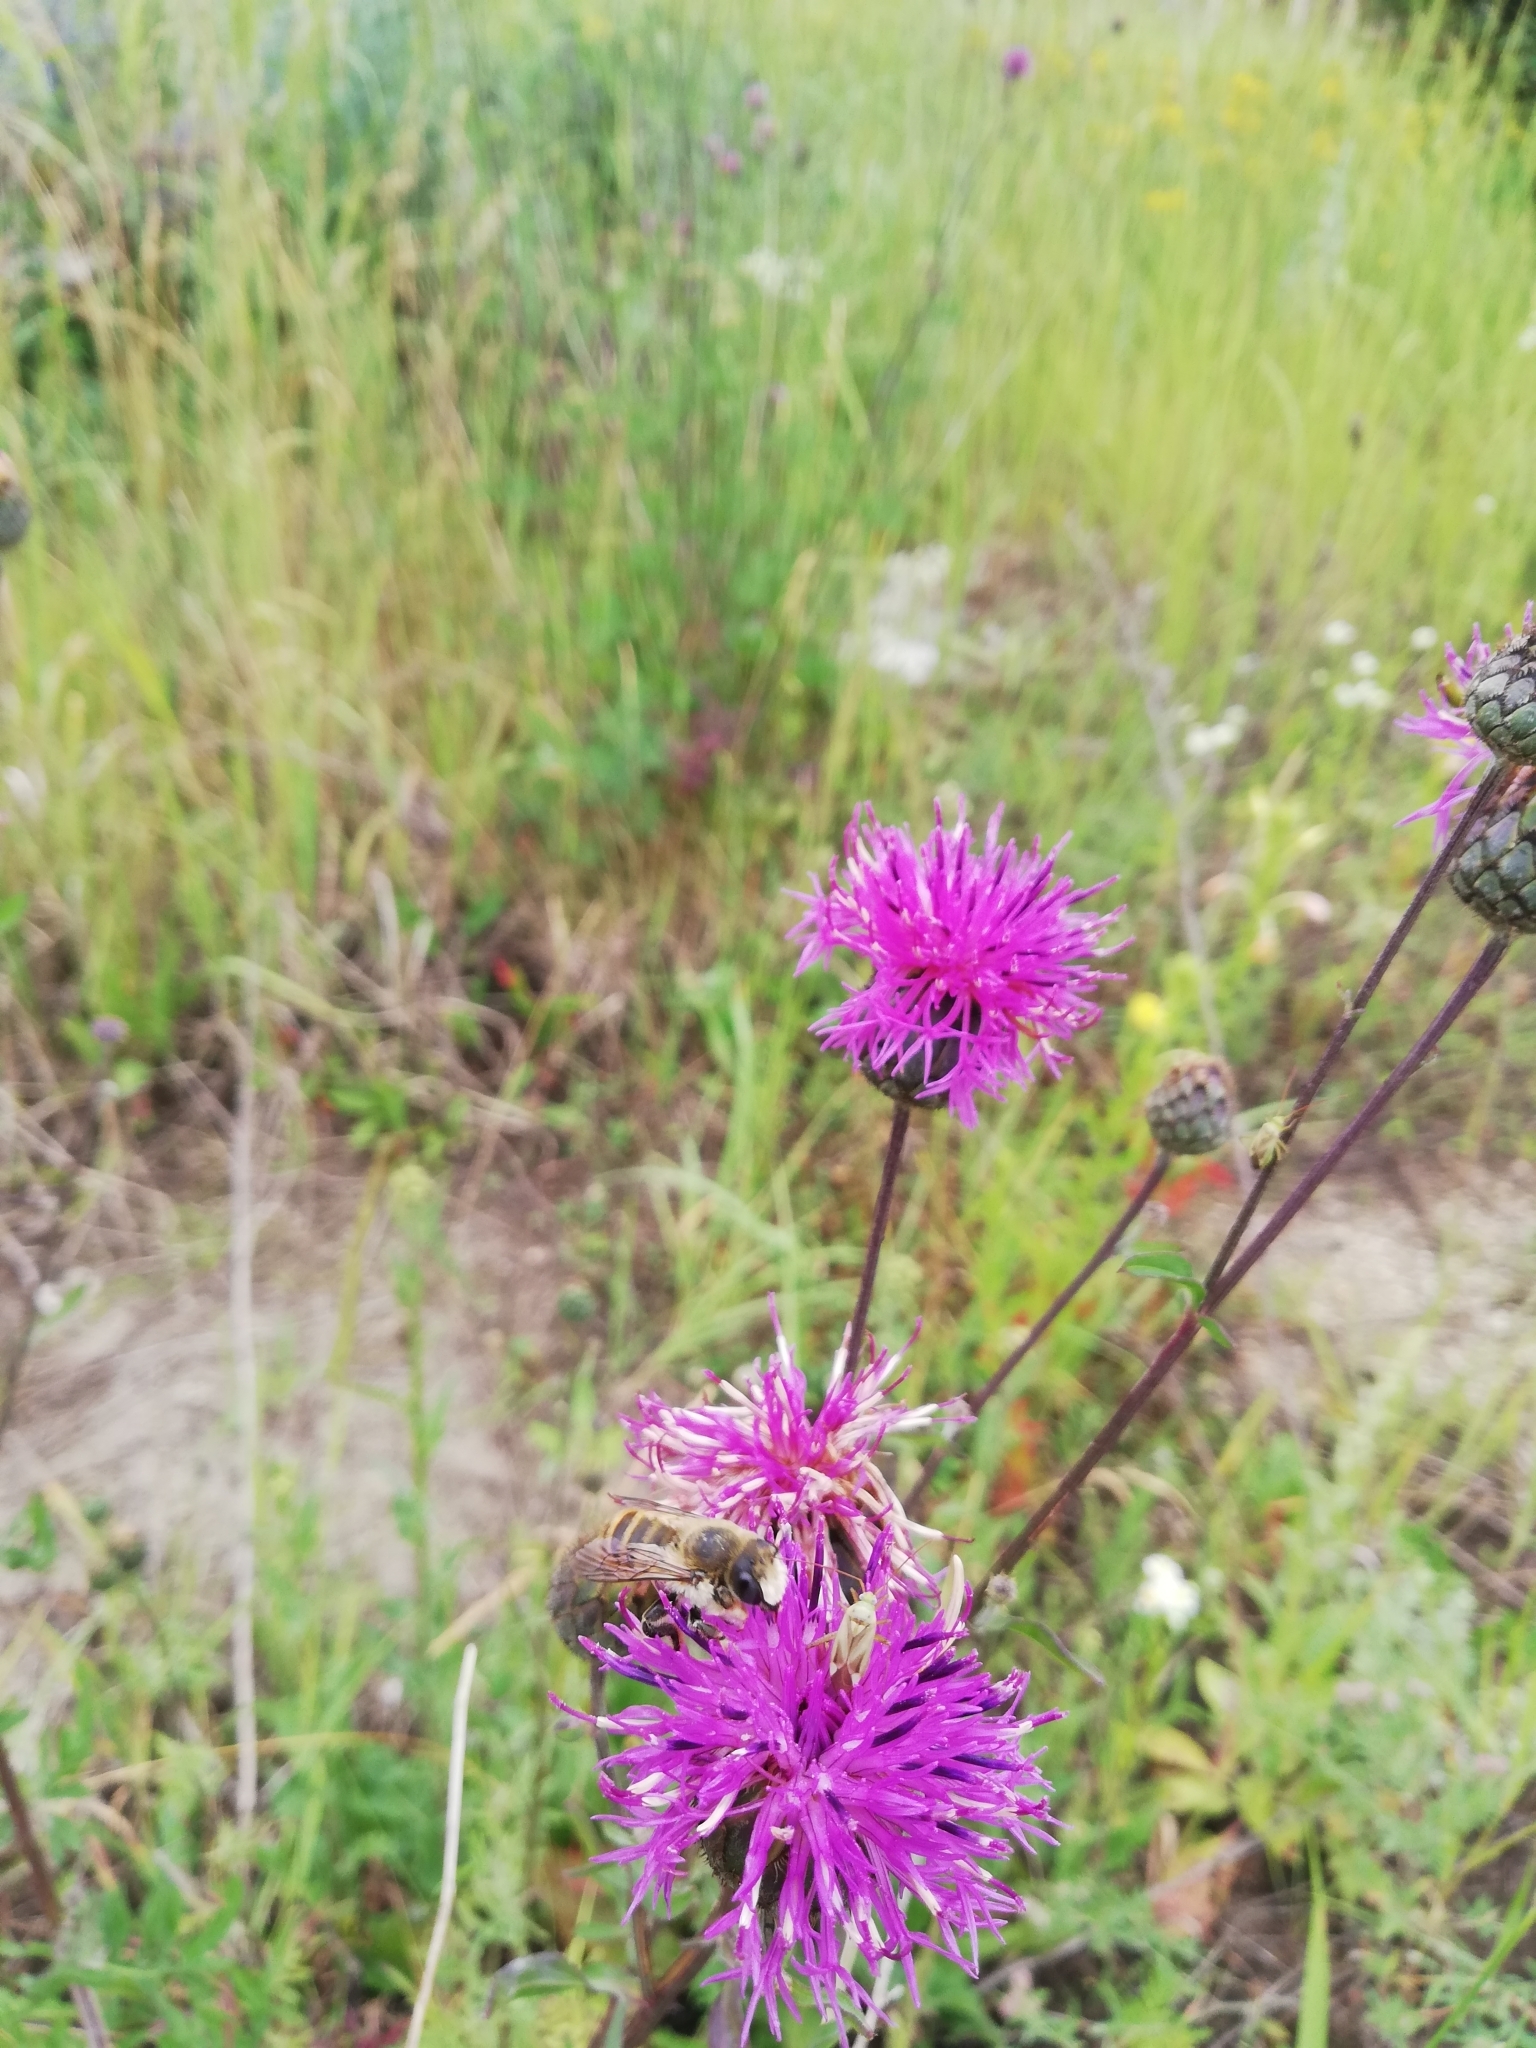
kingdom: Plantae
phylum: Tracheophyta
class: Magnoliopsida
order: Asterales
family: Asteraceae
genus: Centaurea
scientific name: Centaurea scabiosa
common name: Greater knapweed
